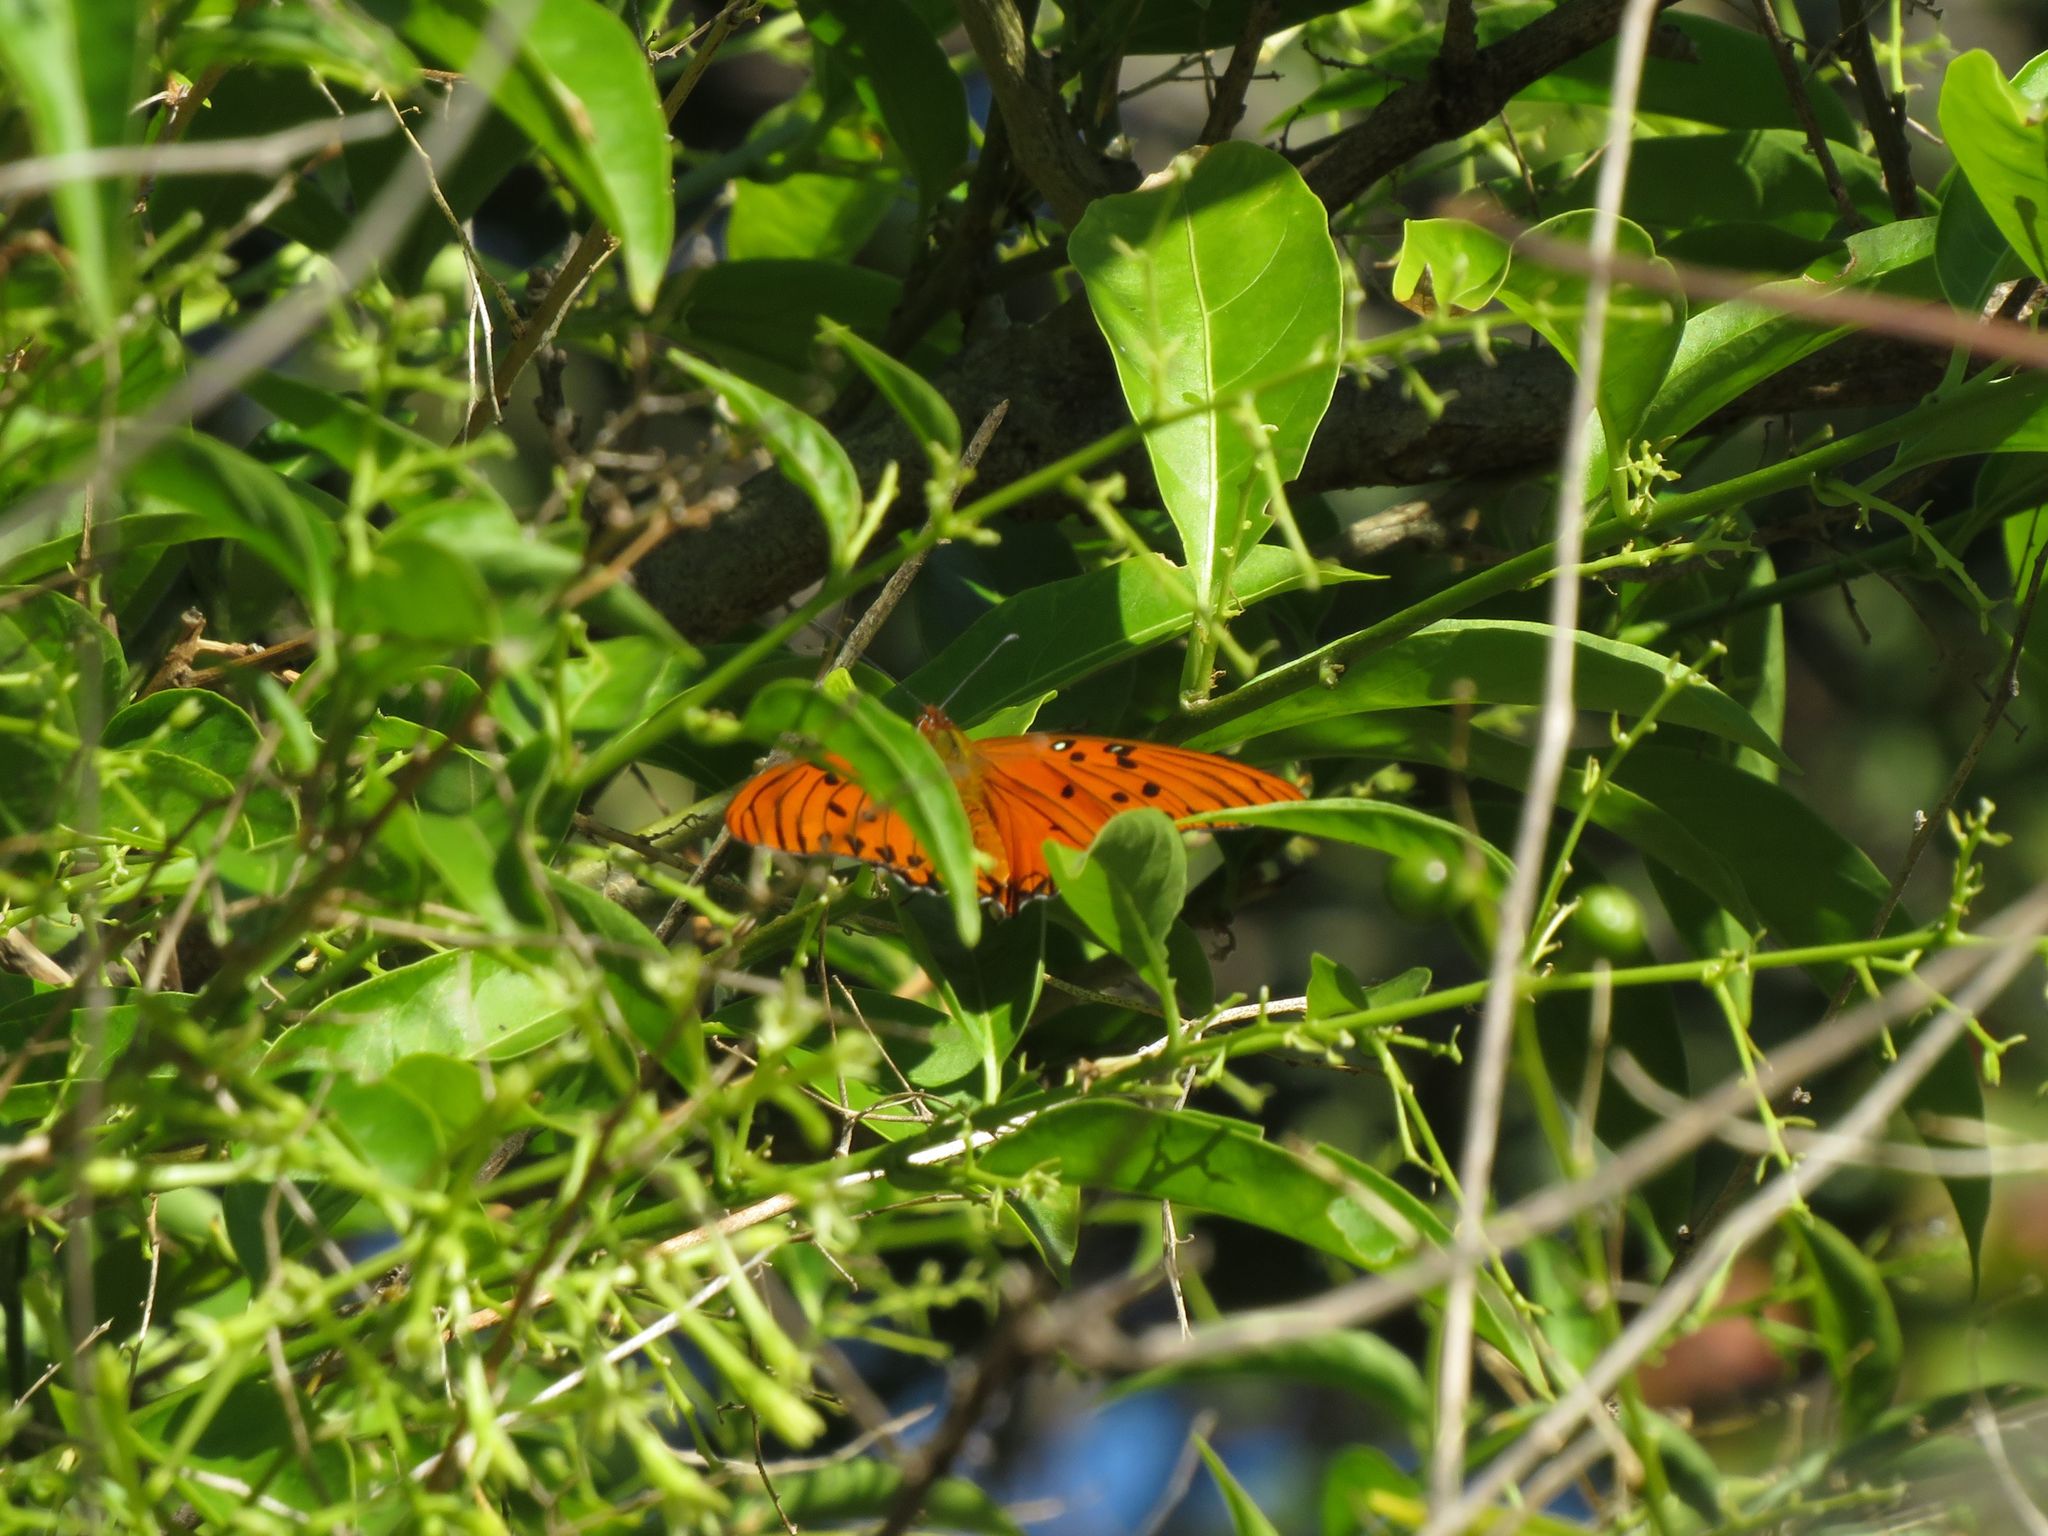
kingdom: Animalia
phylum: Arthropoda
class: Insecta
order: Lepidoptera
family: Nymphalidae
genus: Dione
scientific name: Dione vanillae
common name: Gulf fritillary
